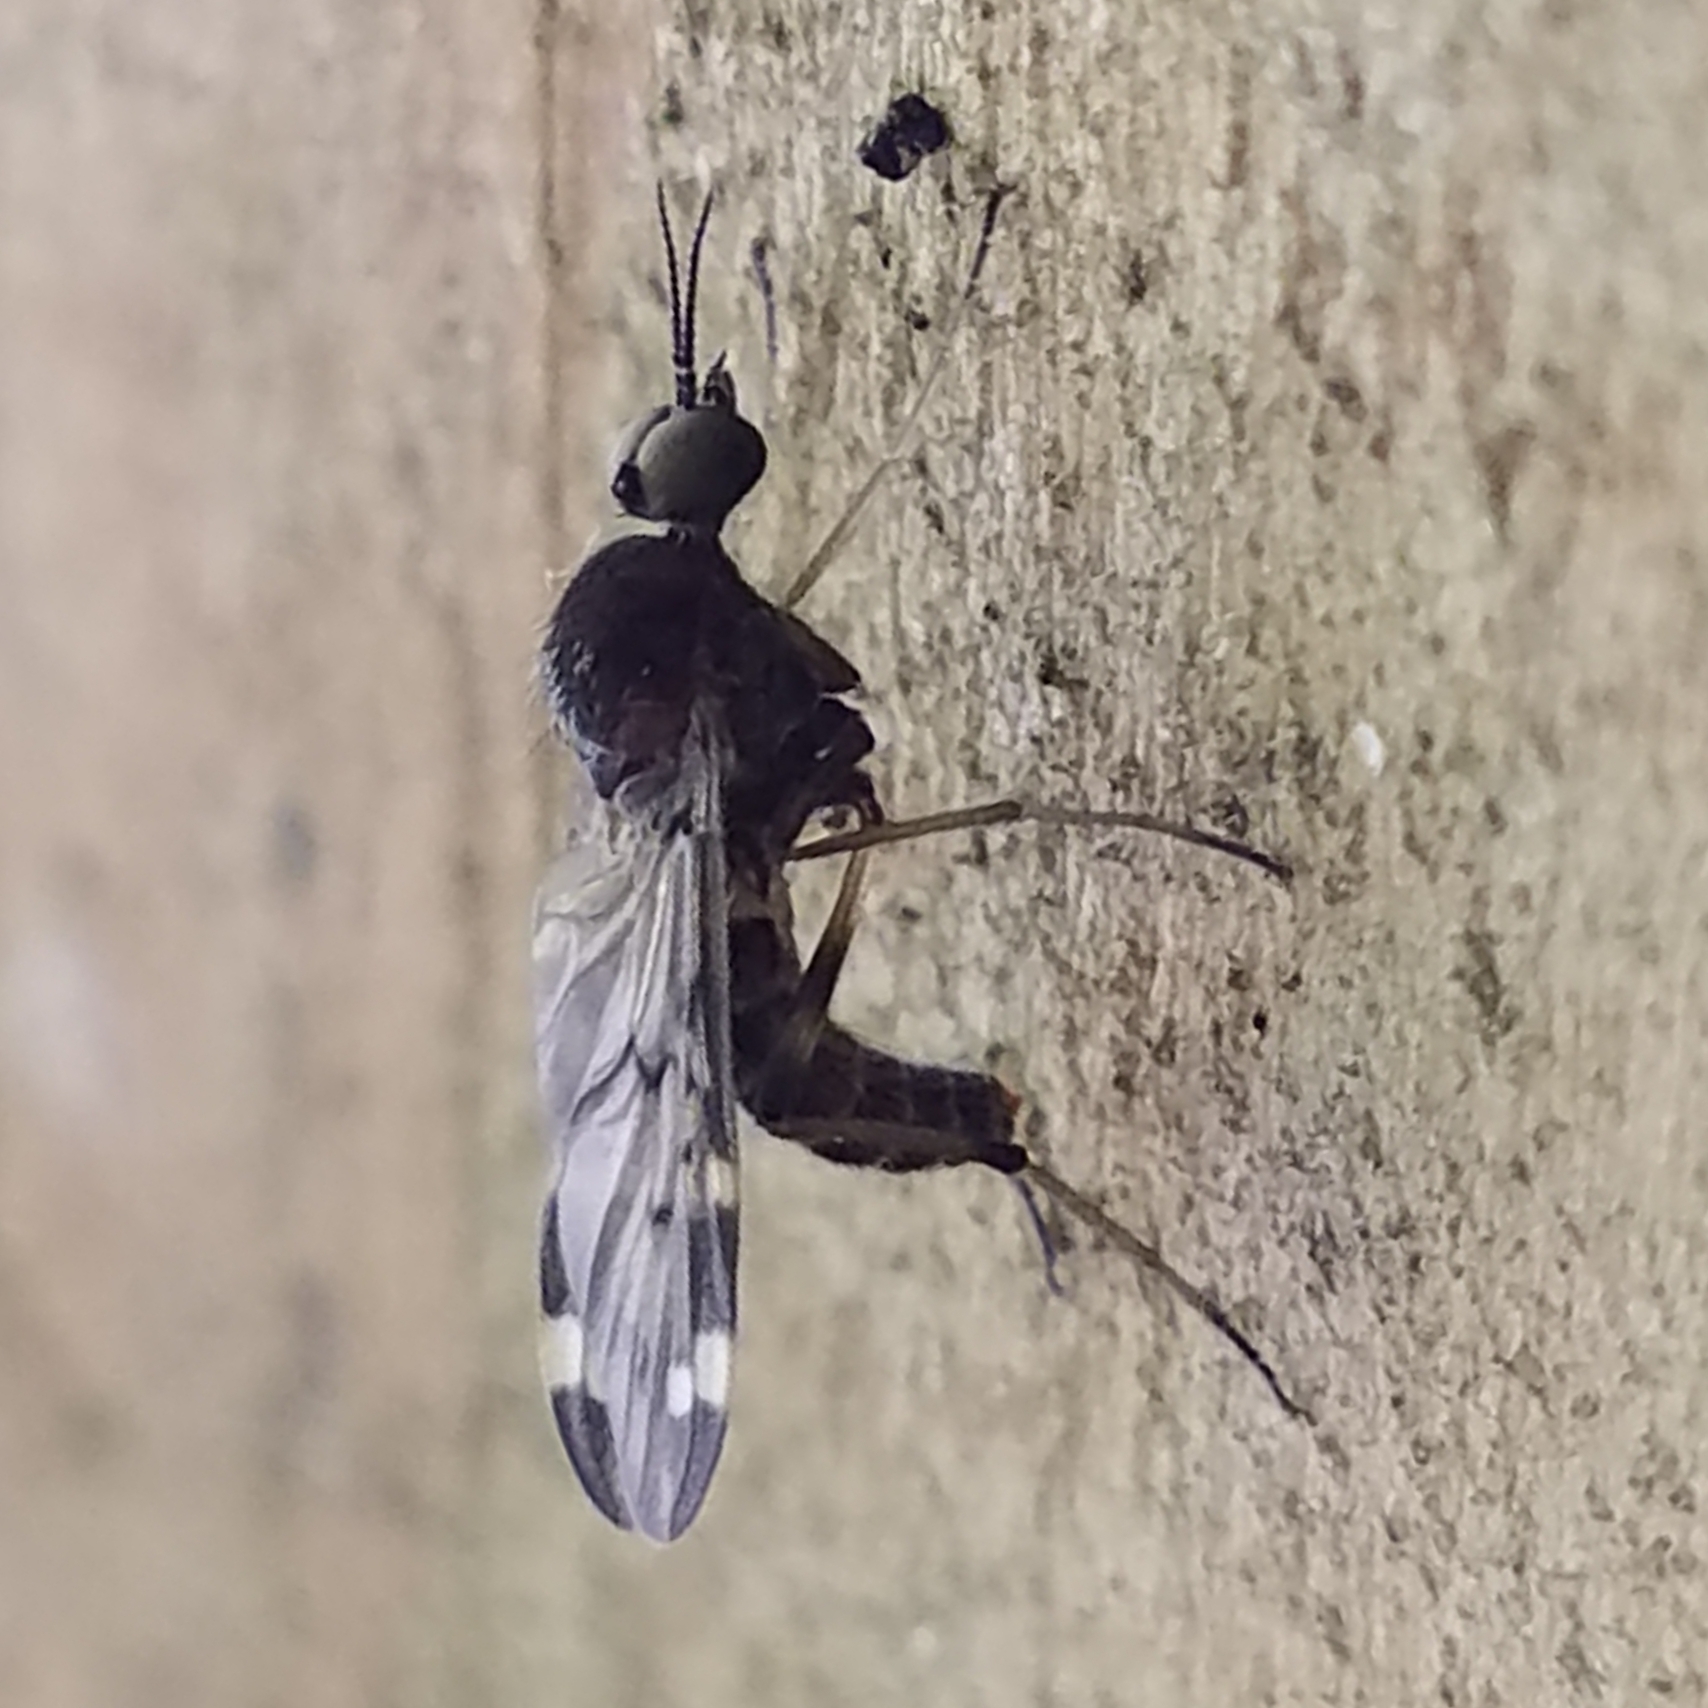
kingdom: Animalia
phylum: Arthropoda
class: Insecta
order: Diptera
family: Anisopodidae
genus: Sylvicola
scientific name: Sylvicola alternata
